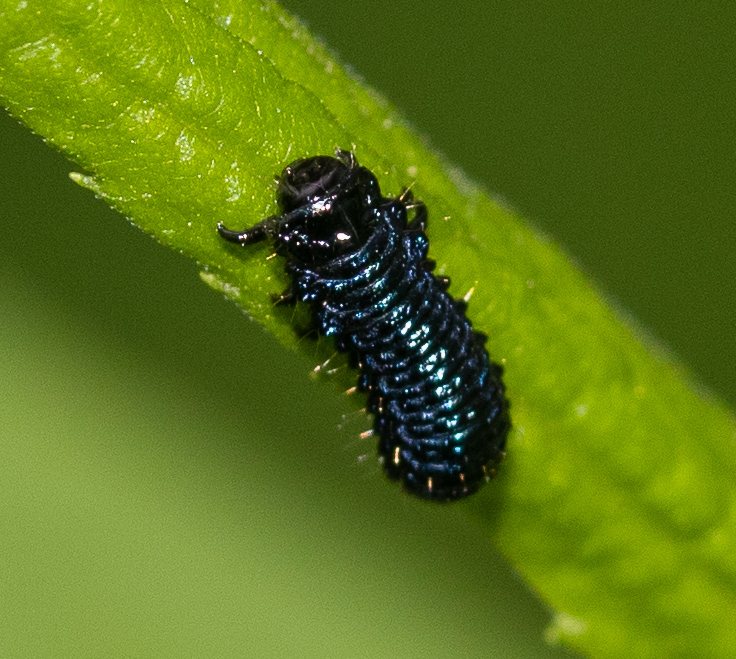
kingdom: Animalia
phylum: Arthropoda
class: Insecta
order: Coleoptera
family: Chrysomelidae
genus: Trirhabda
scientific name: Trirhabda canadensis
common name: Goldenrod leaf beetle
